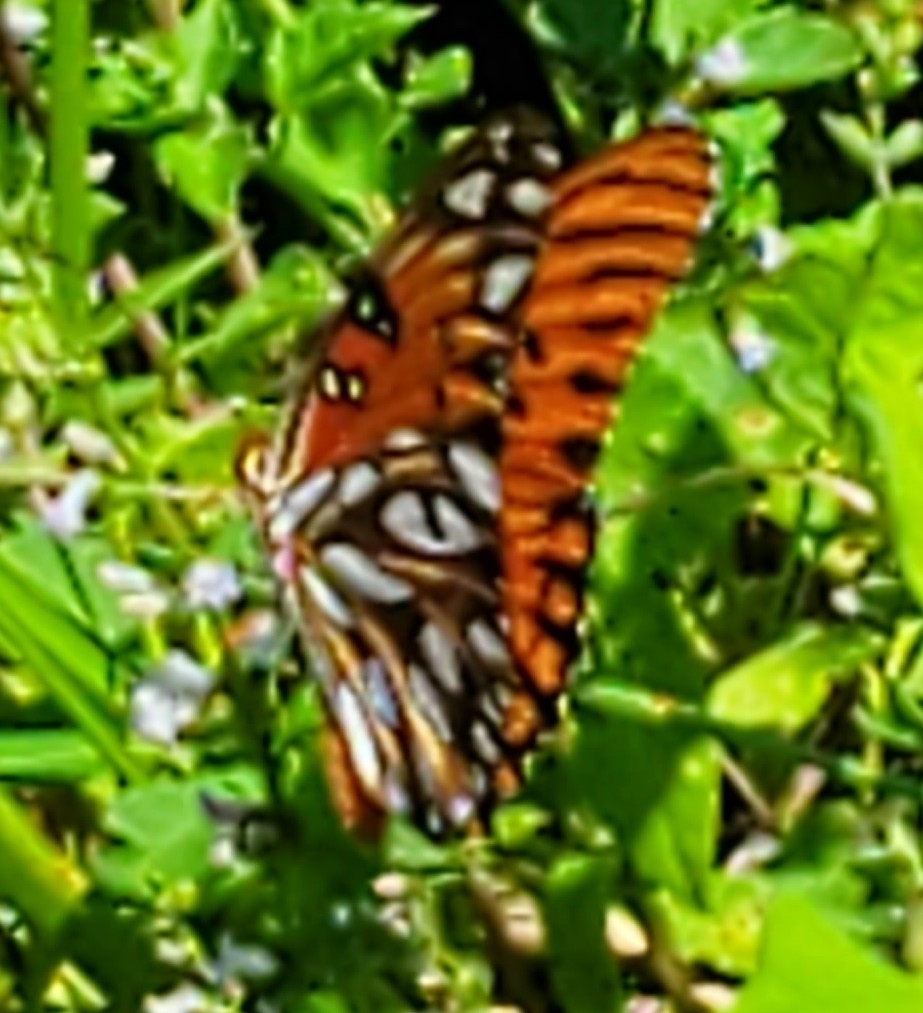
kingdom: Animalia
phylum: Arthropoda
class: Insecta
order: Lepidoptera
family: Nymphalidae
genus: Dione
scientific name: Dione vanillae
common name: Gulf fritillary
